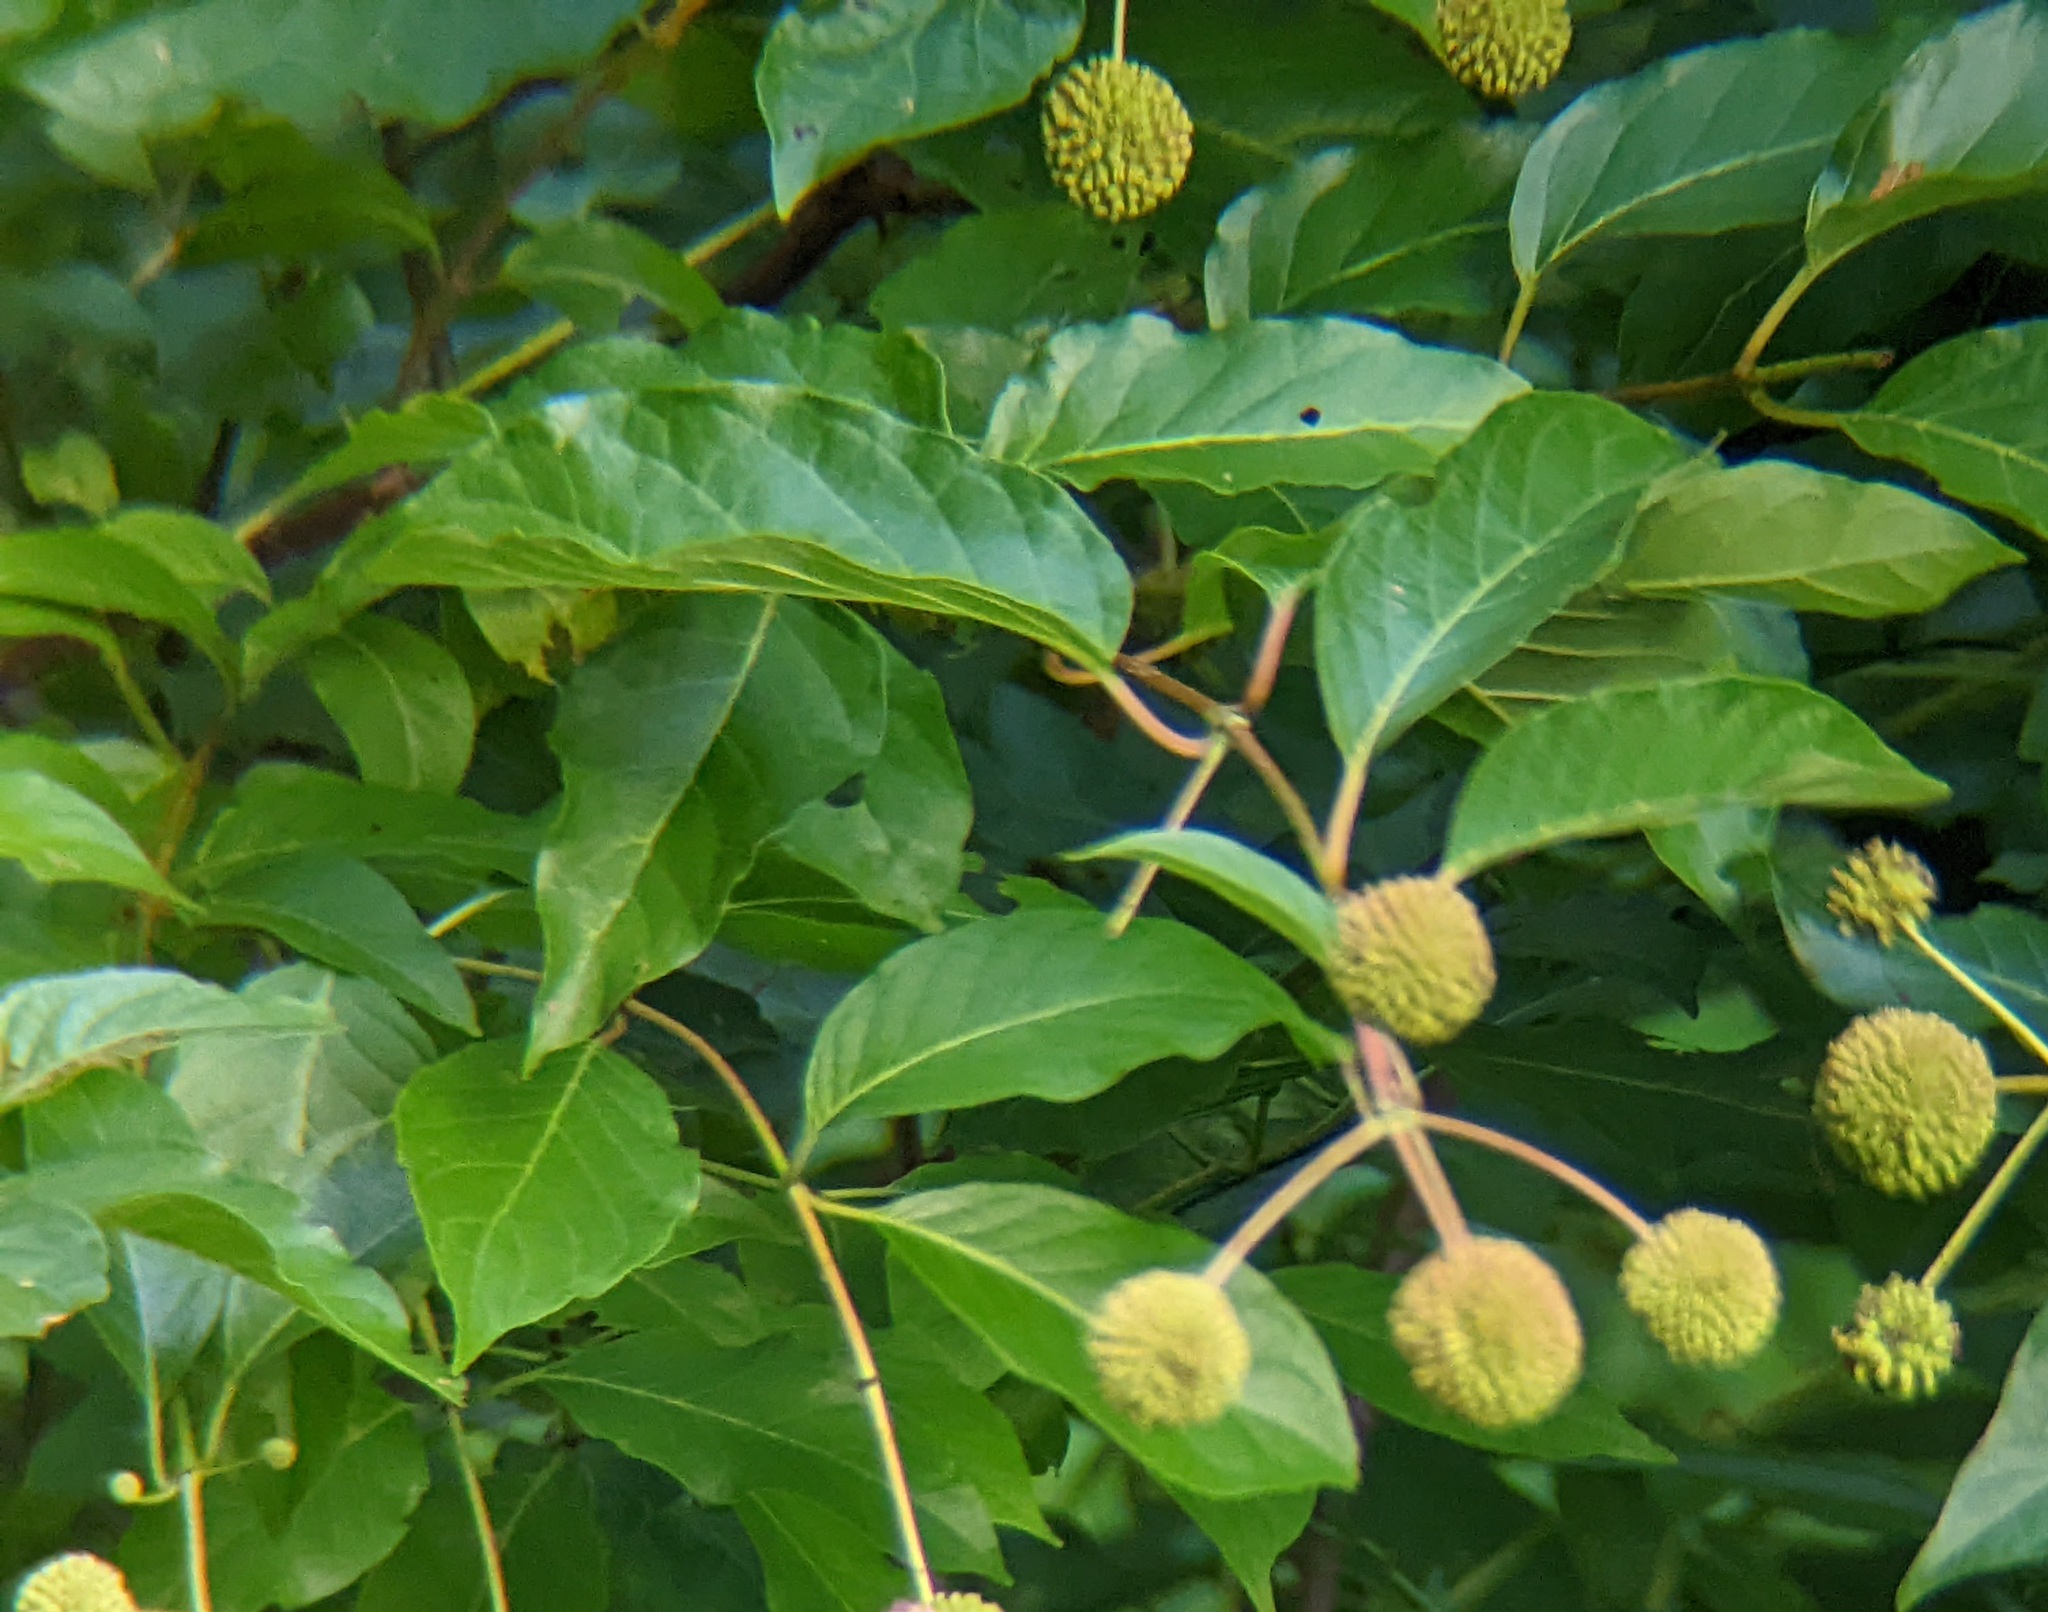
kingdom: Plantae
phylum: Tracheophyta
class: Magnoliopsida
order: Gentianales
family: Rubiaceae
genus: Cephalanthus
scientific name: Cephalanthus occidentalis
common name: Button-willow
